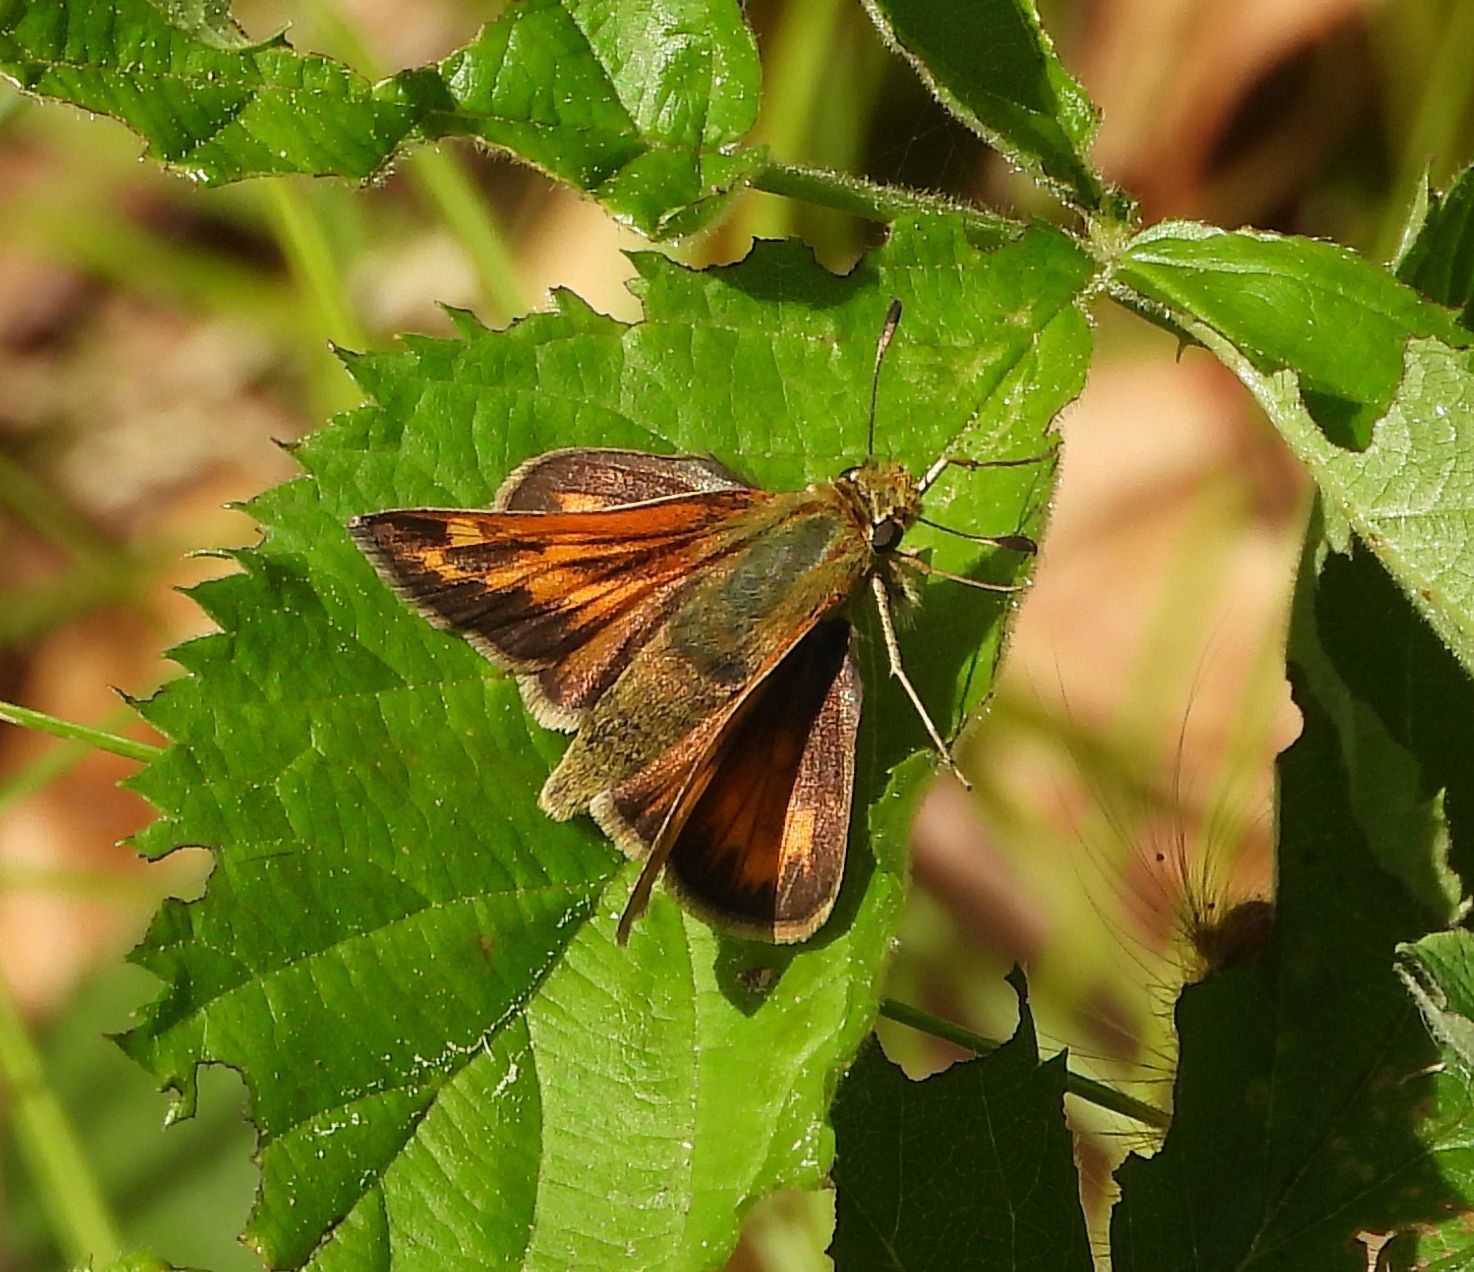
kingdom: Animalia
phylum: Arthropoda
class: Insecta
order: Lepidoptera
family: Hesperiidae
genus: Hesperia
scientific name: Hesperia sassacus
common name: Indian skipper
